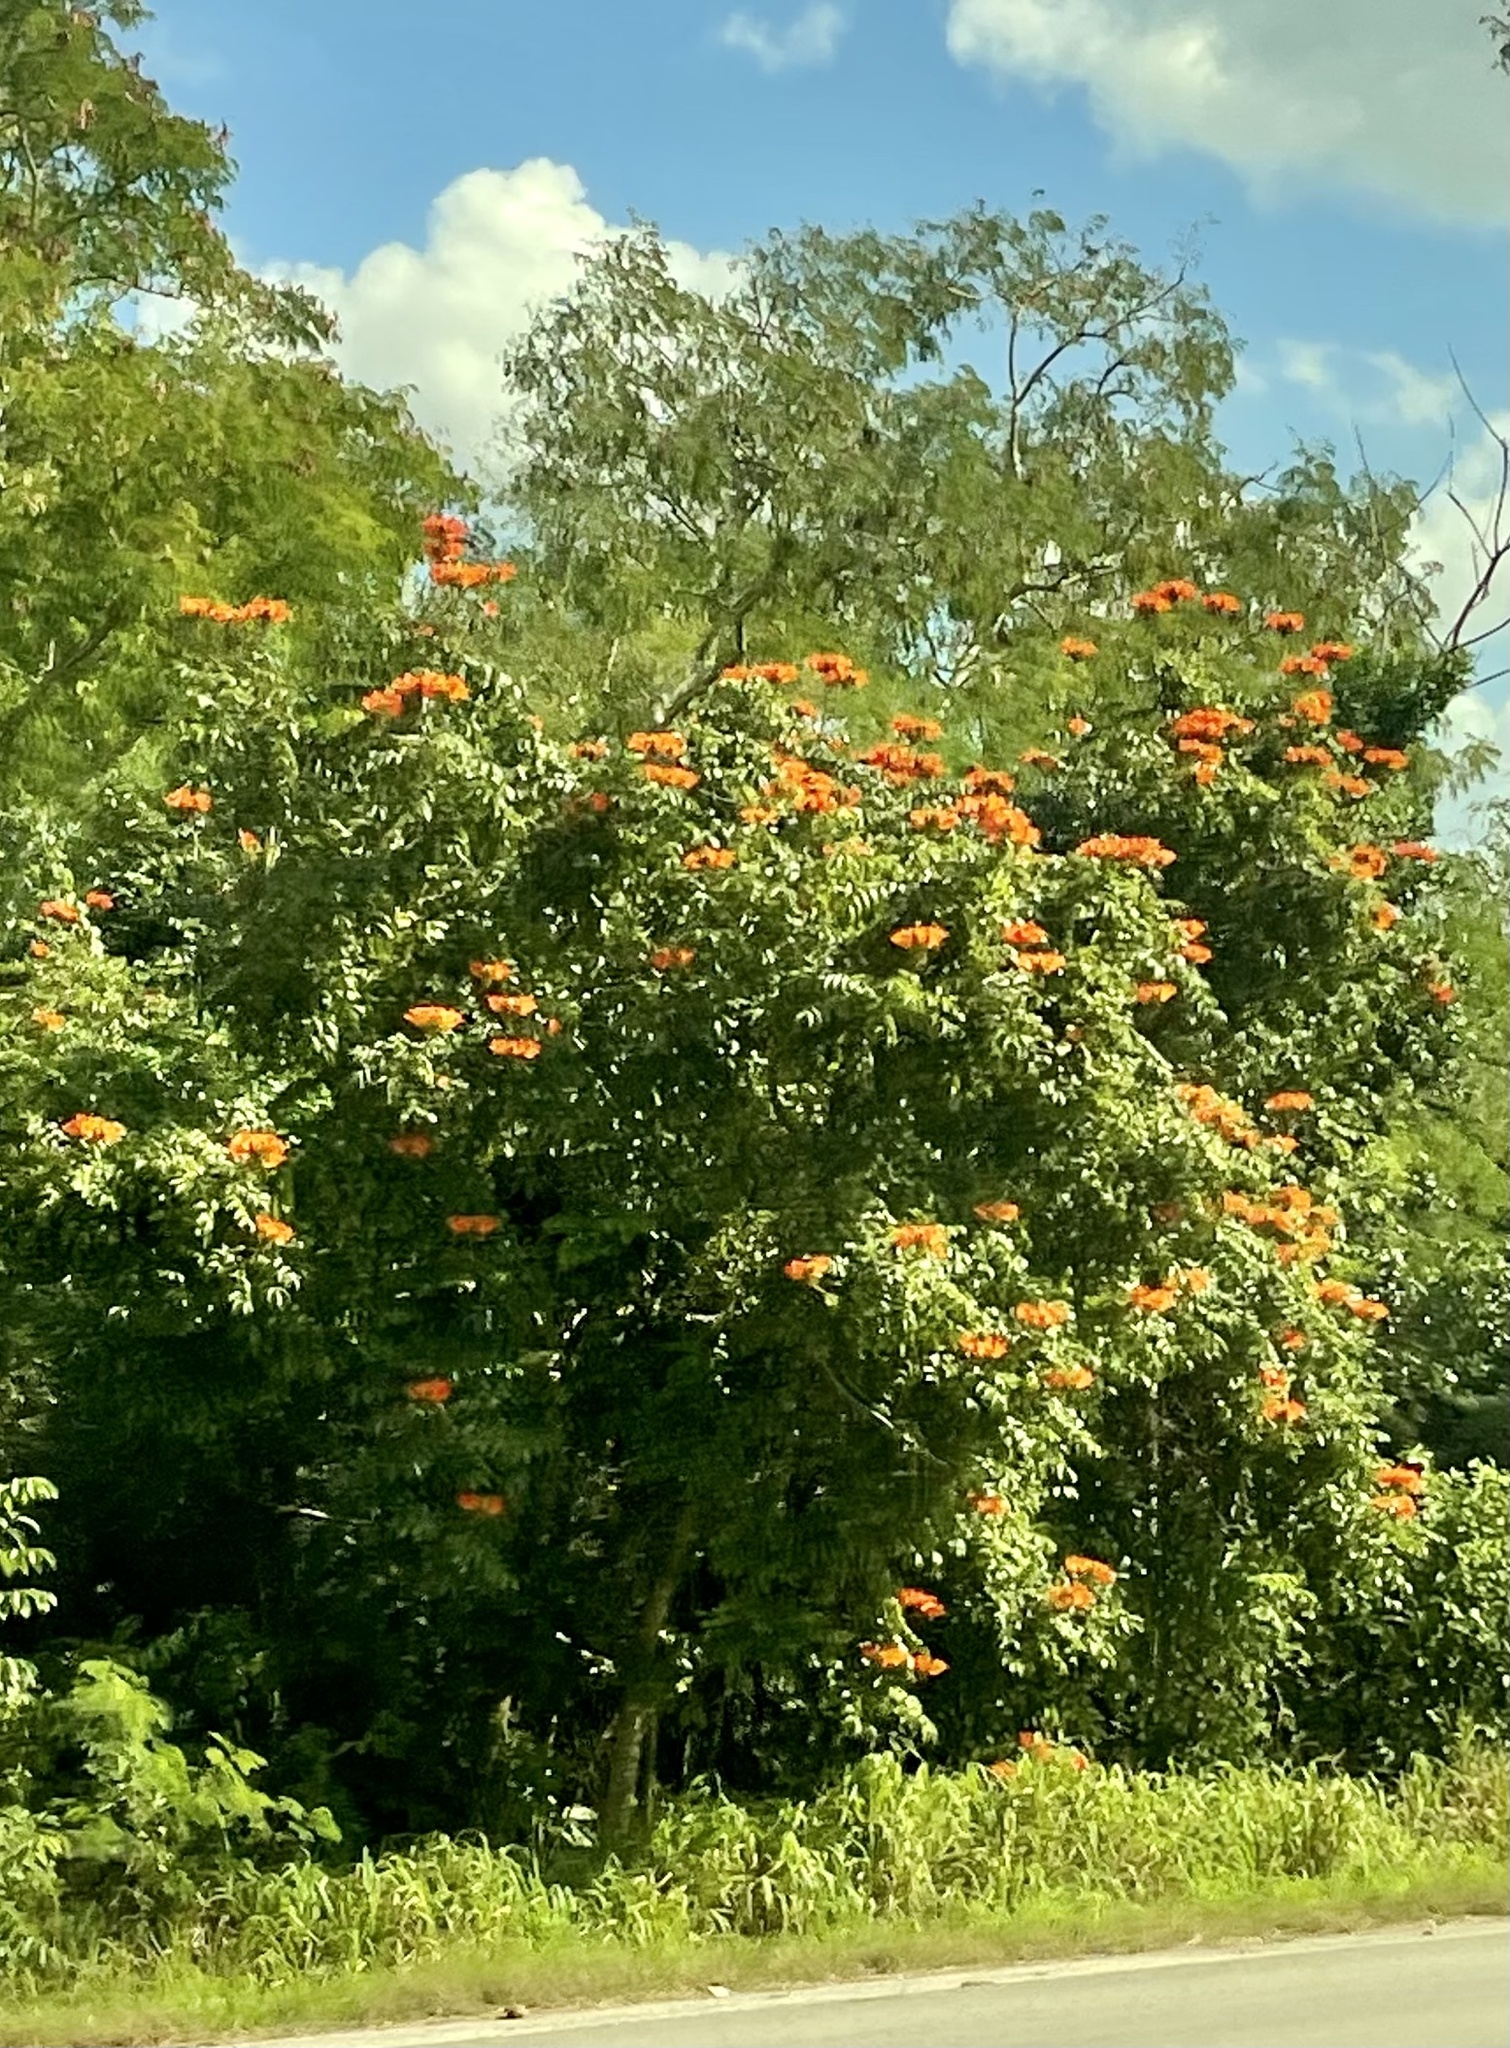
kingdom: Plantae
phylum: Tracheophyta
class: Magnoliopsida
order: Lamiales
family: Bignoniaceae
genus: Spathodea
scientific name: Spathodea campanulata
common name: African tuliptree
